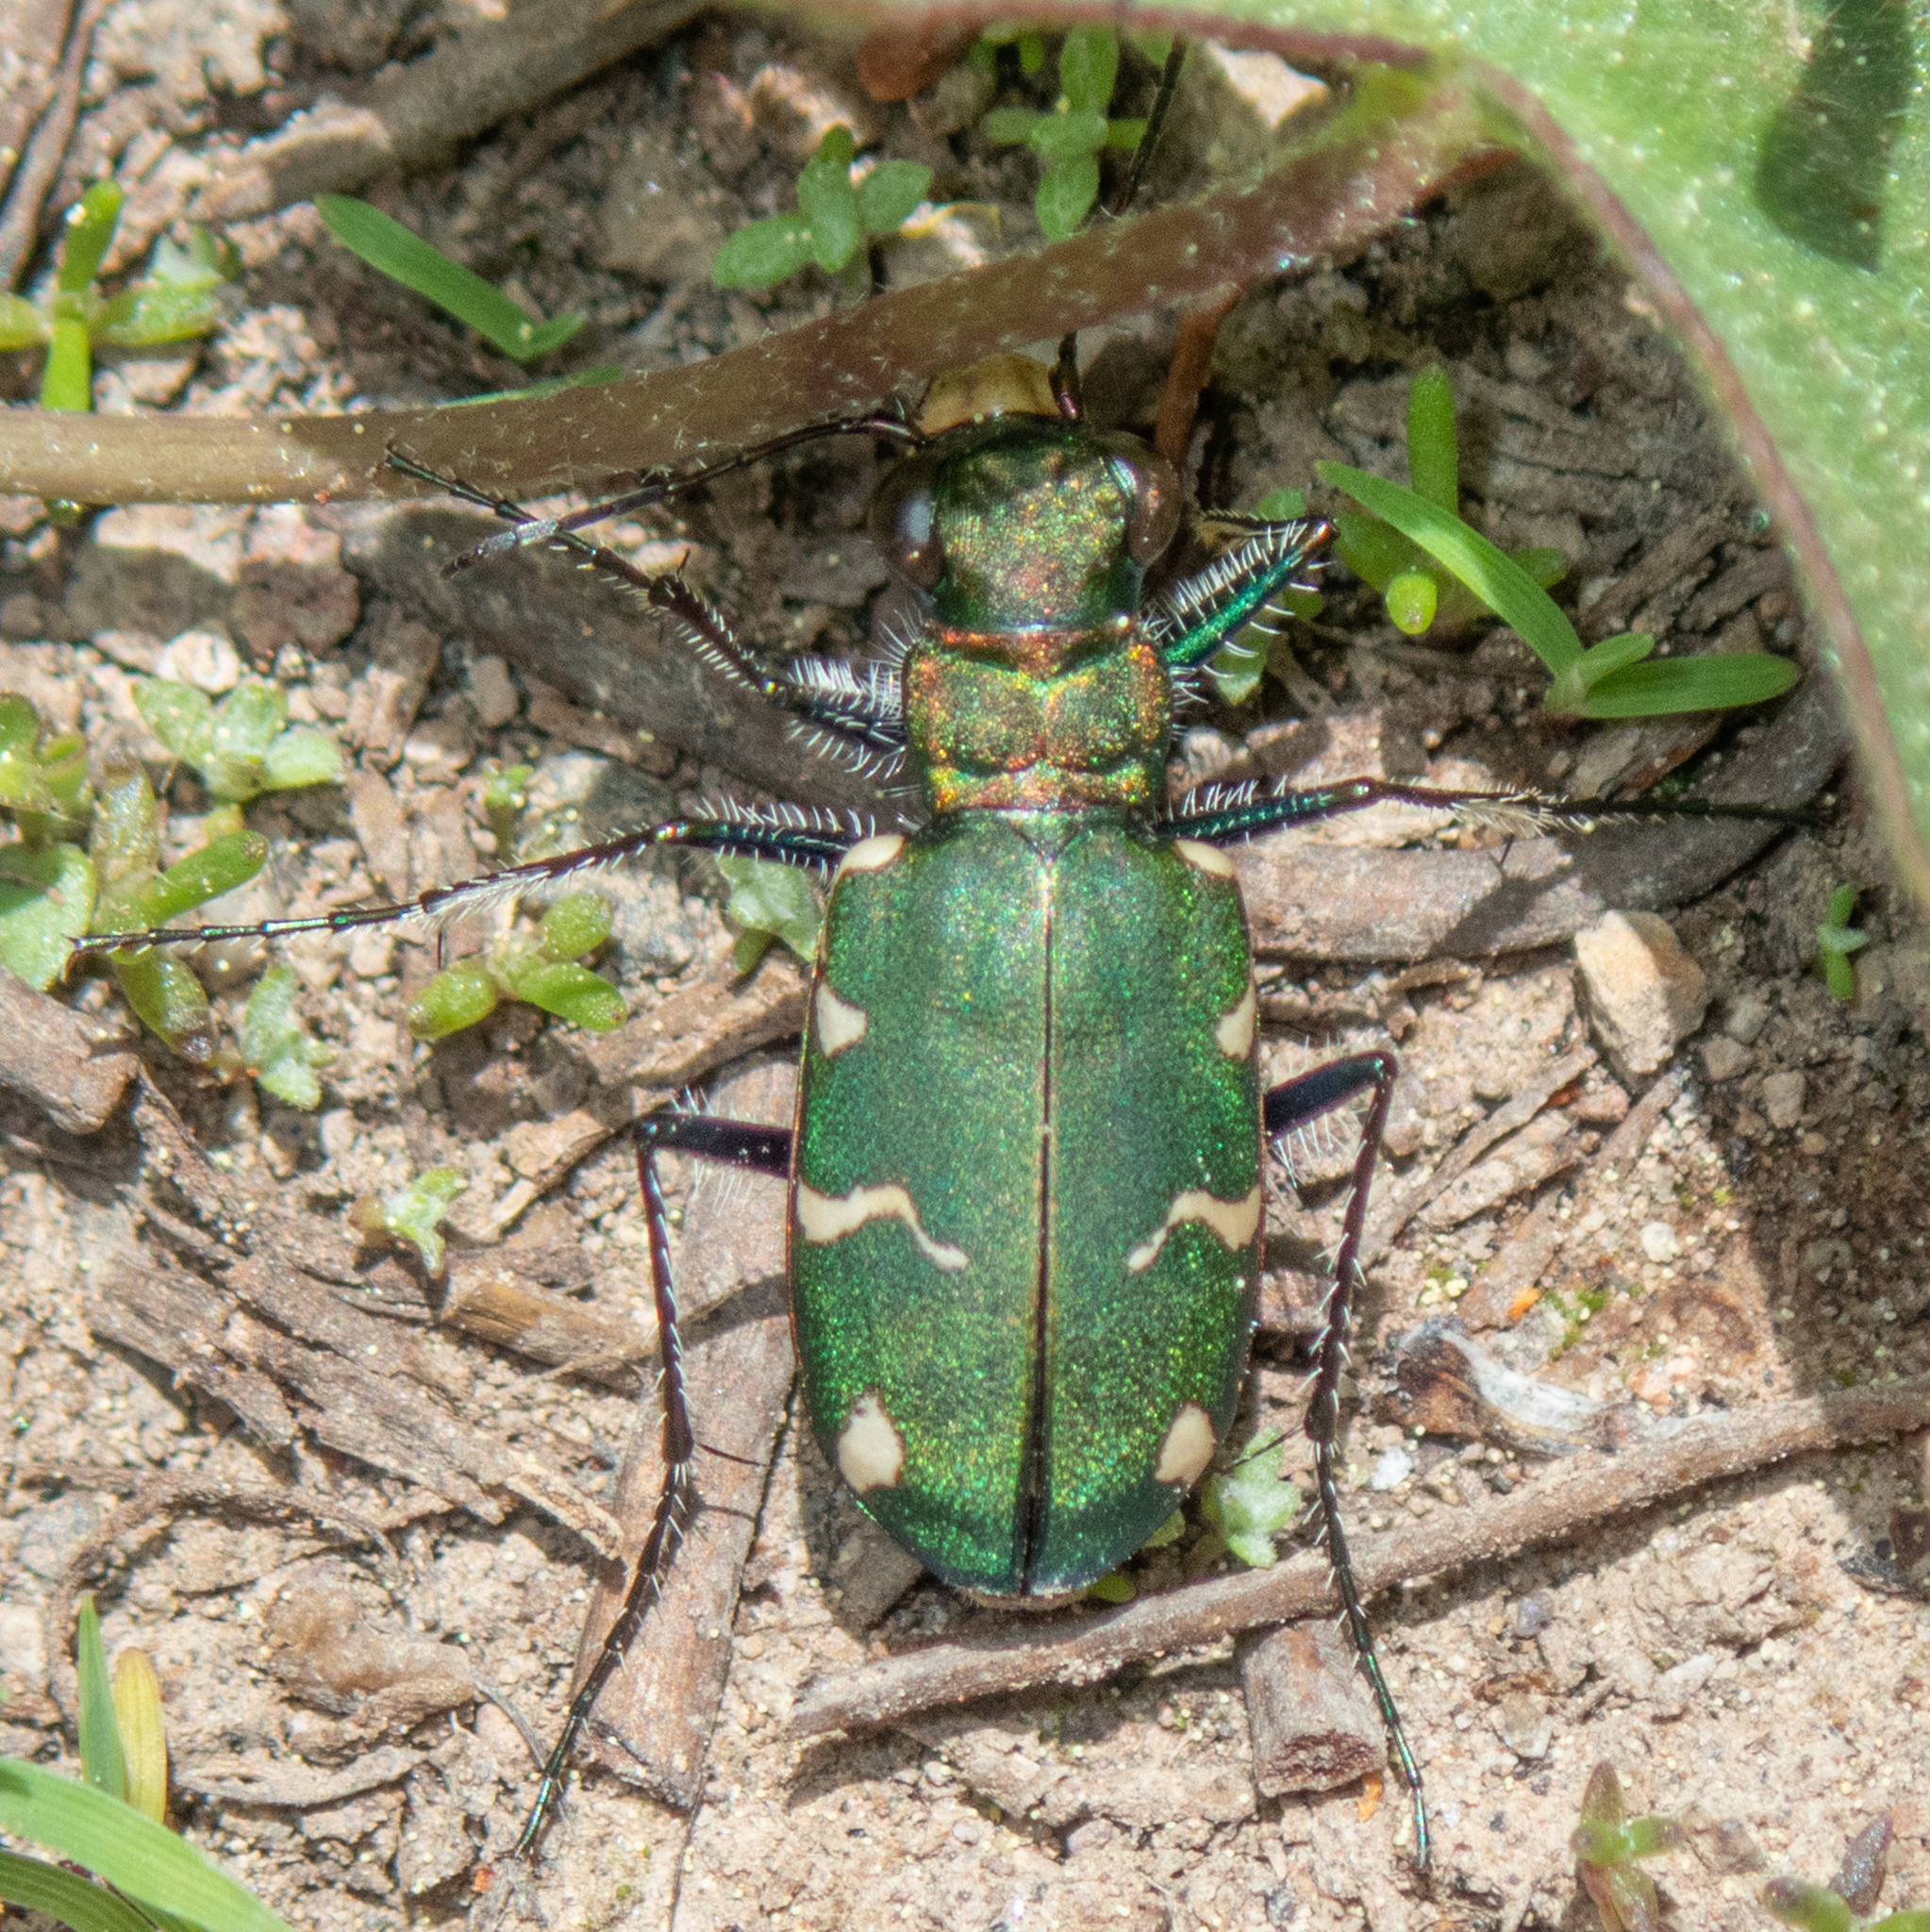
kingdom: Animalia
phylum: Arthropoda
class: Insecta
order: Coleoptera
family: Carabidae
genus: Cicindela
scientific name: Cicindela longilabris
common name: Boreal long-lipped tiger beetle
